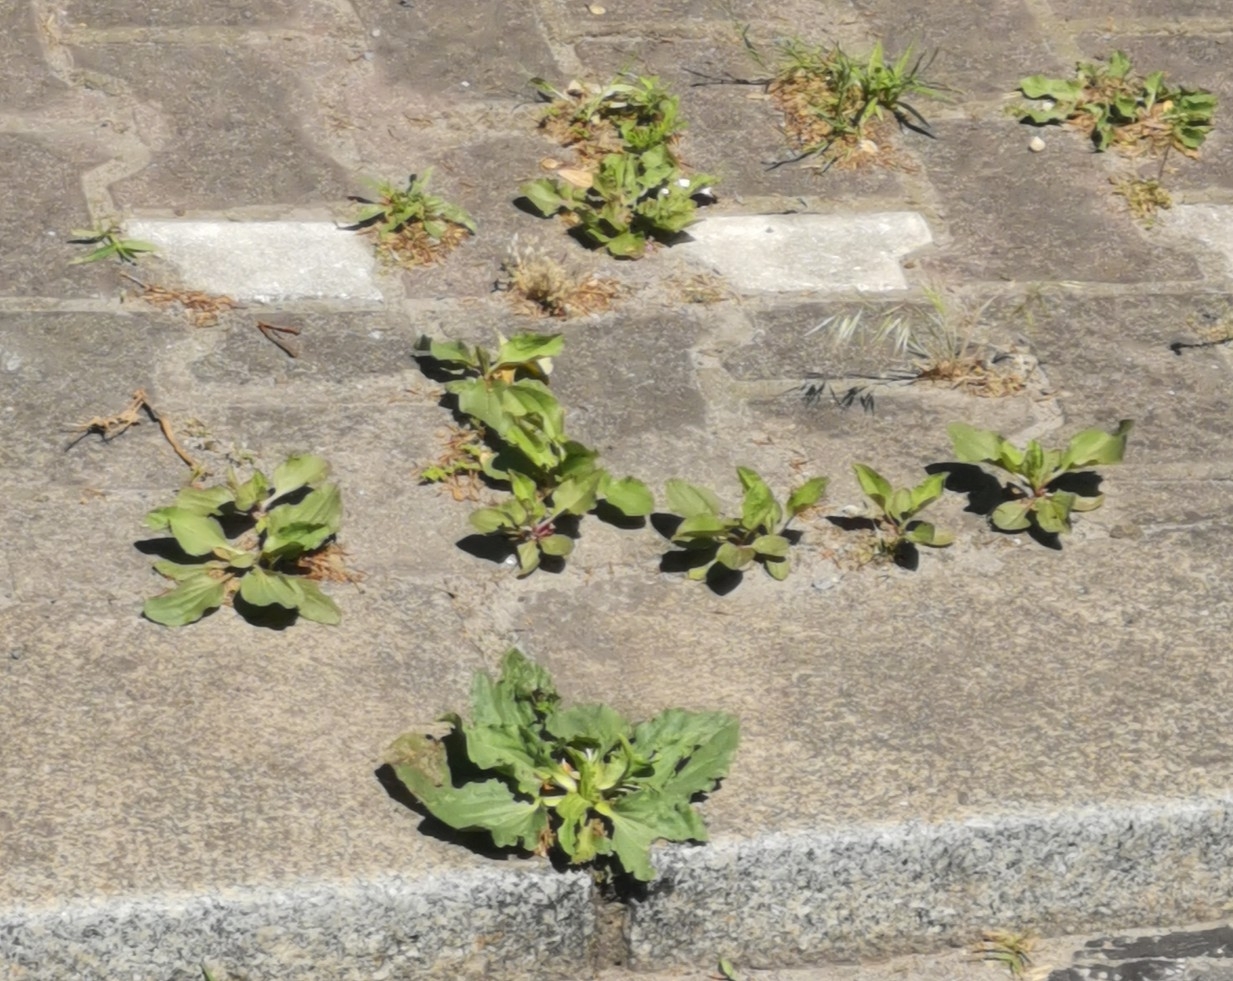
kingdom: Plantae
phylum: Tracheophyta
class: Magnoliopsida
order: Lamiales
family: Plantaginaceae
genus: Plantago
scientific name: Plantago major
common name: Common plantain
